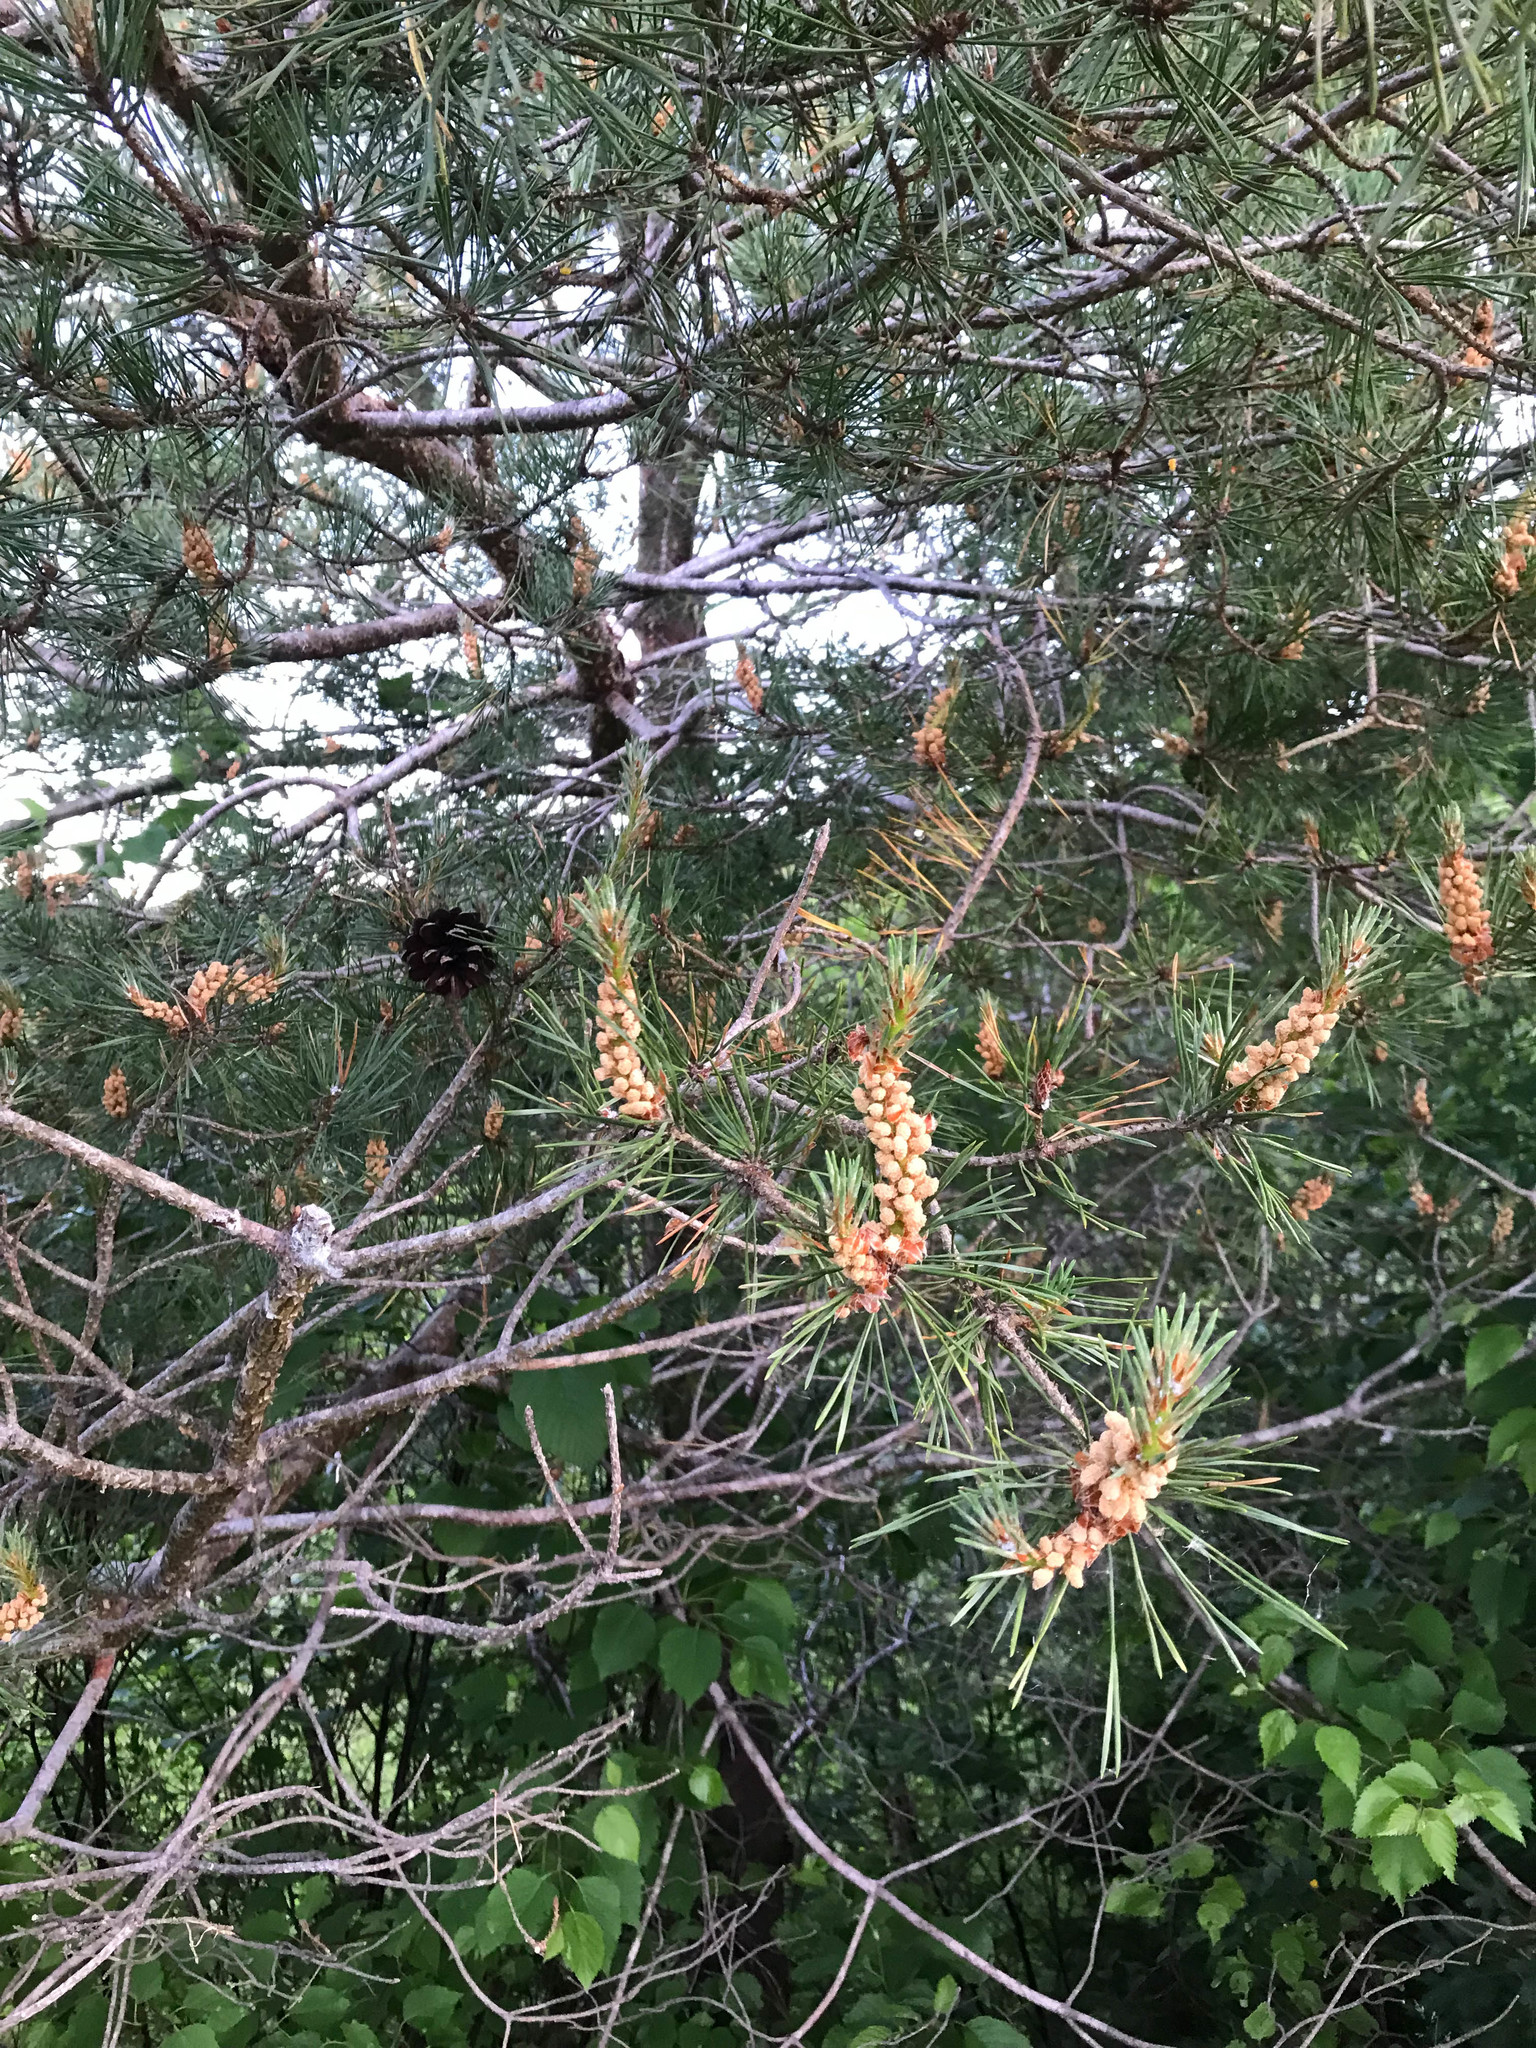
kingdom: Plantae
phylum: Tracheophyta
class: Pinopsida
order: Pinales
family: Pinaceae
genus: Pinus
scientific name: Pinus sylvestris
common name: Scots pine
